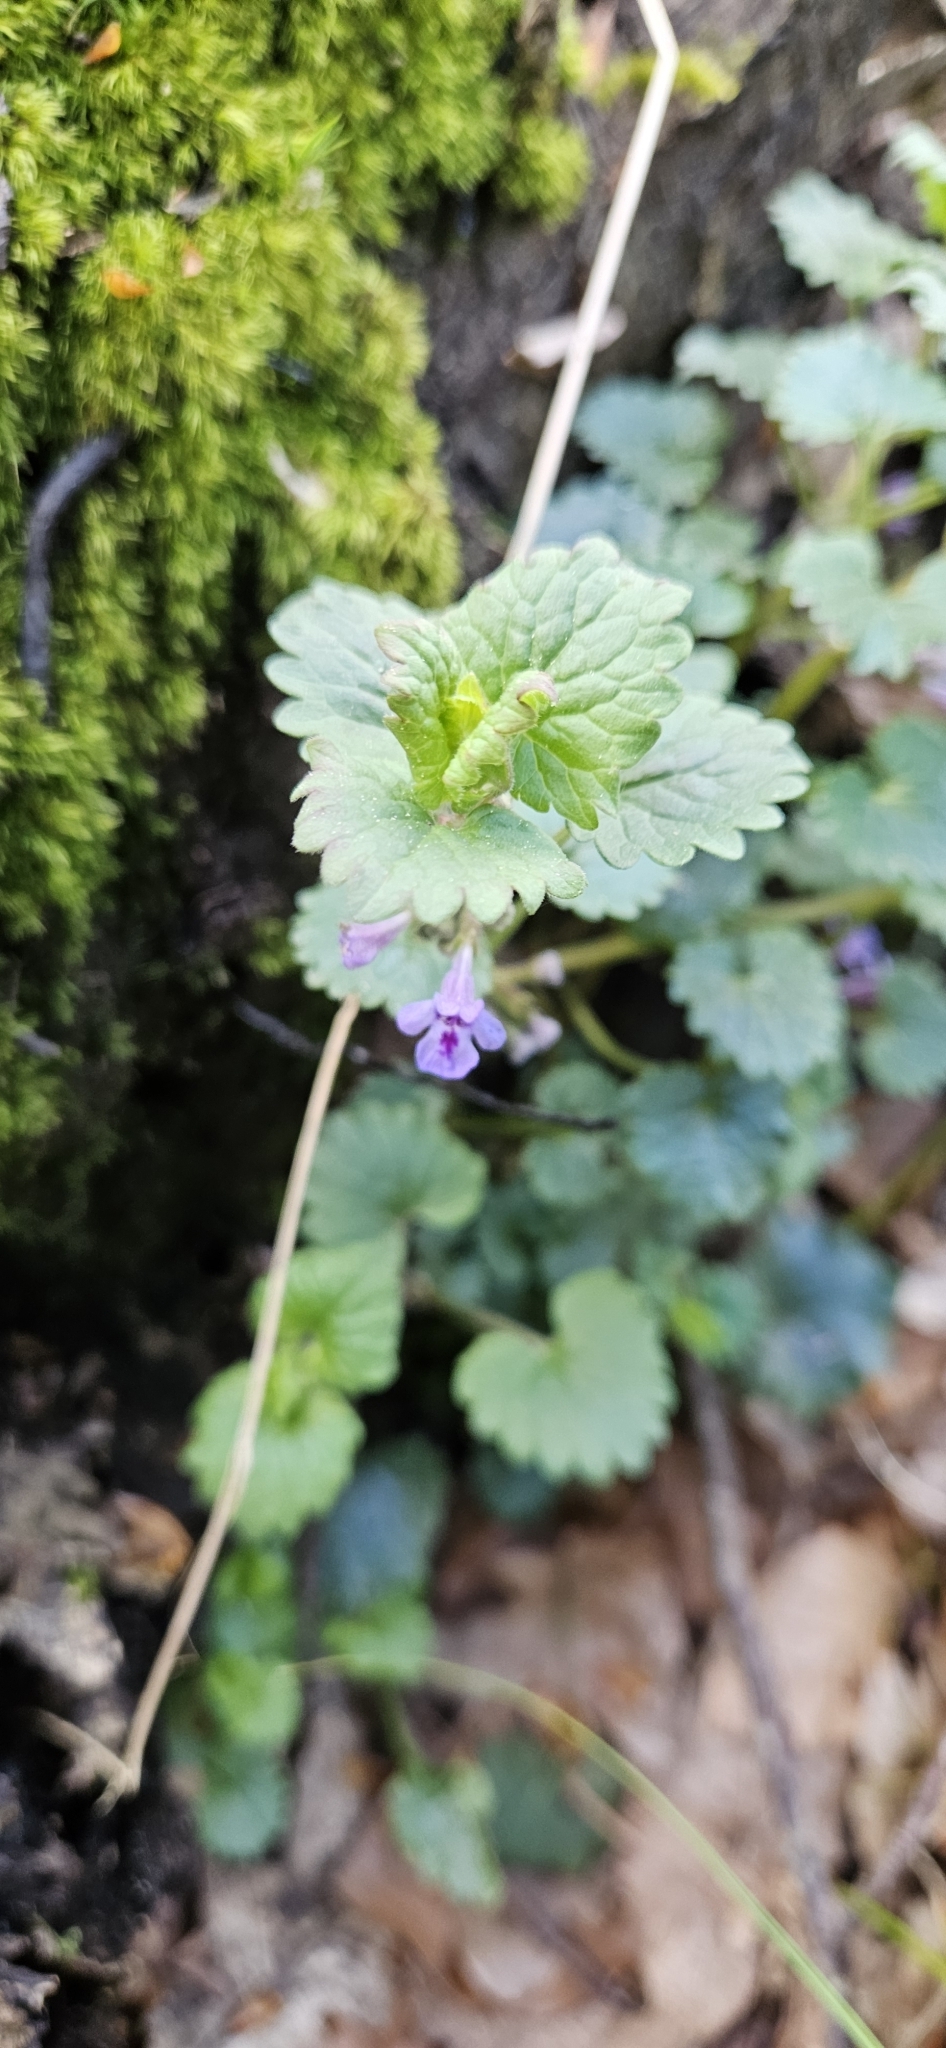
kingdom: Plantae
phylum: Tracheophyta
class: Magnoliopsida
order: Lamiales
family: Lamiaceae
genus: Glechoma
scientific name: Glechoma hederacea
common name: Ground ivy
